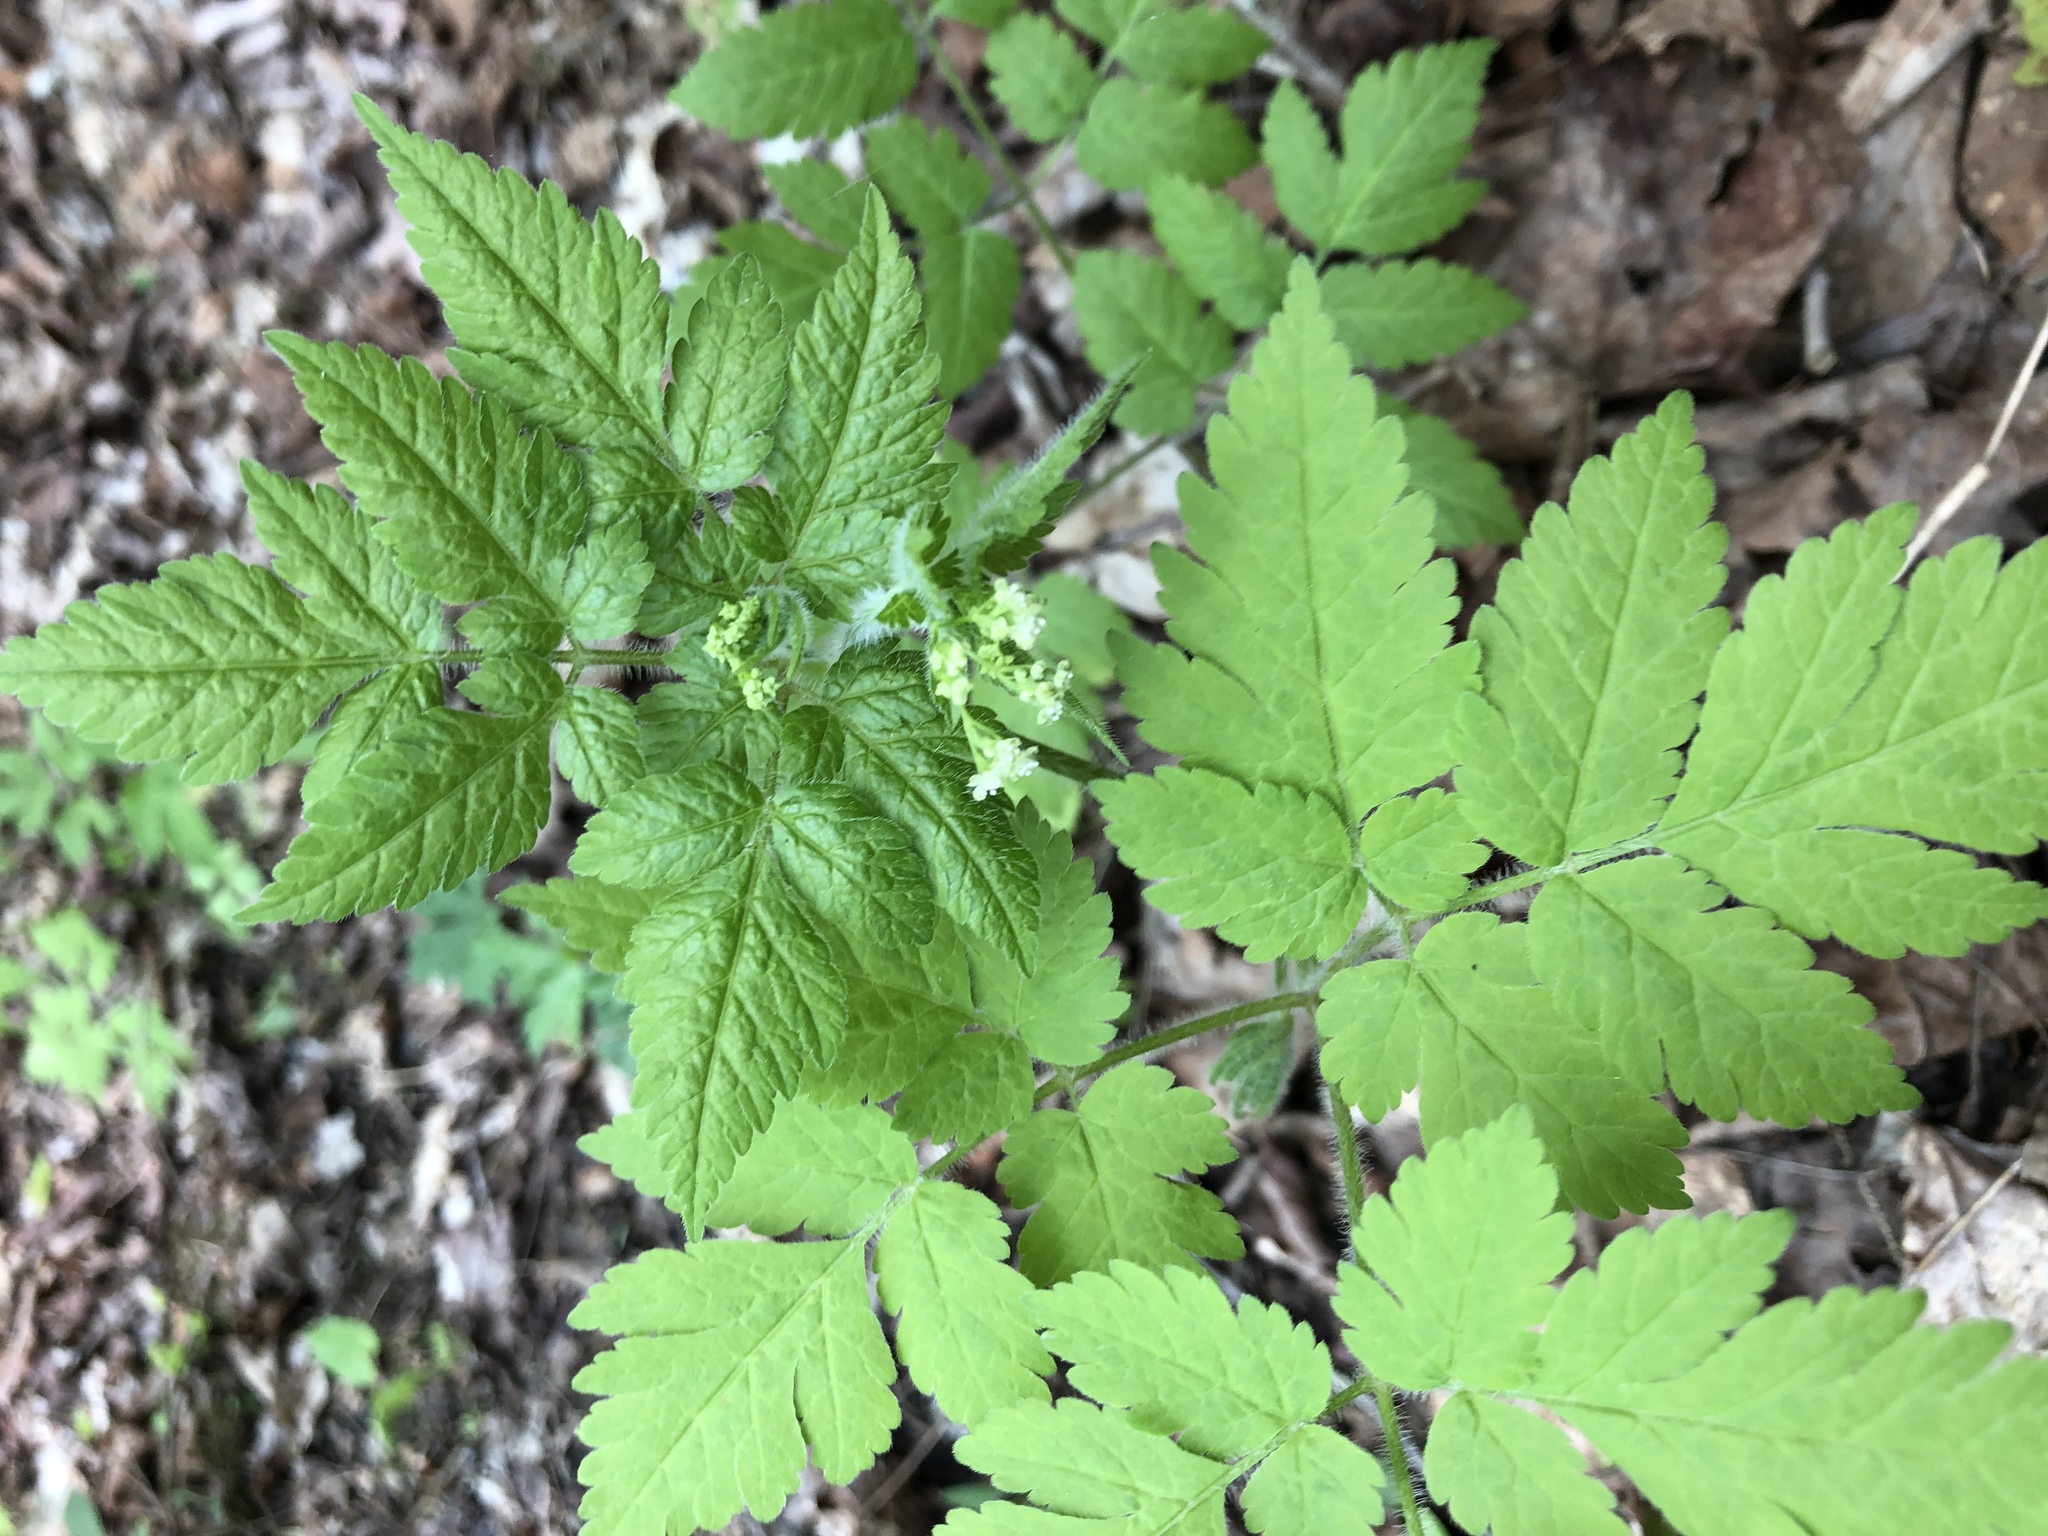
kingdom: Plantae
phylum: Tracheophyta
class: Magnoliopsida
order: Apiales
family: Apiaceae
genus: Osmorhiza
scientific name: Osmorhiza claytonii
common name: Hairy sweet cicely
